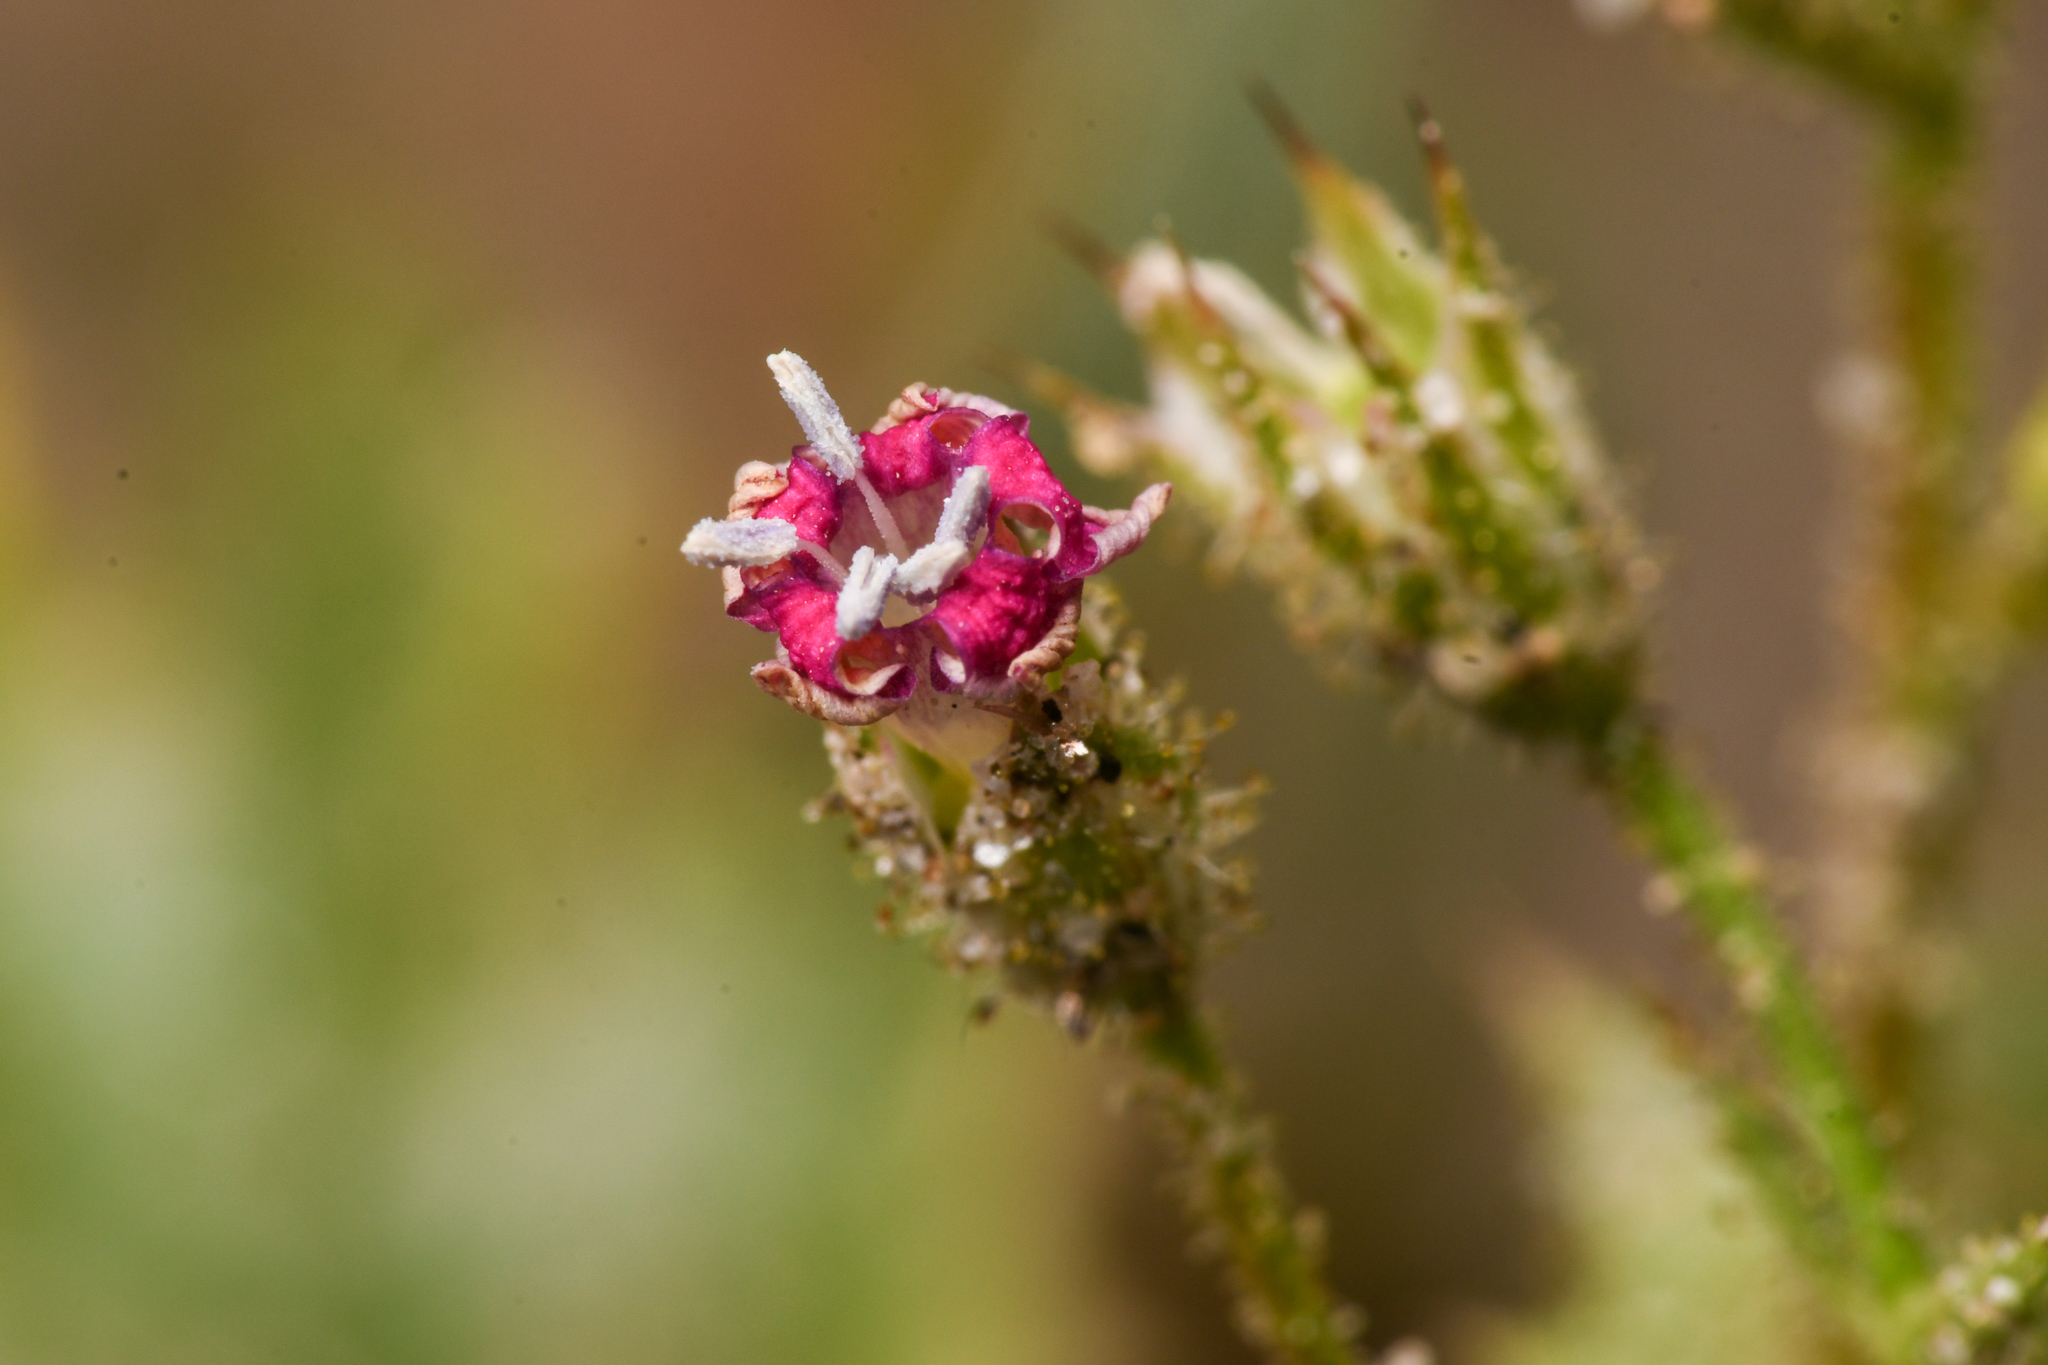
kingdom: Plantae
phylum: Tracheophyta
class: Magnoliopsida
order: Ericales
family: Polemoniaceae
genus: Aliciella
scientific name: Aliciella latifolia
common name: Broad-leaf gilia
